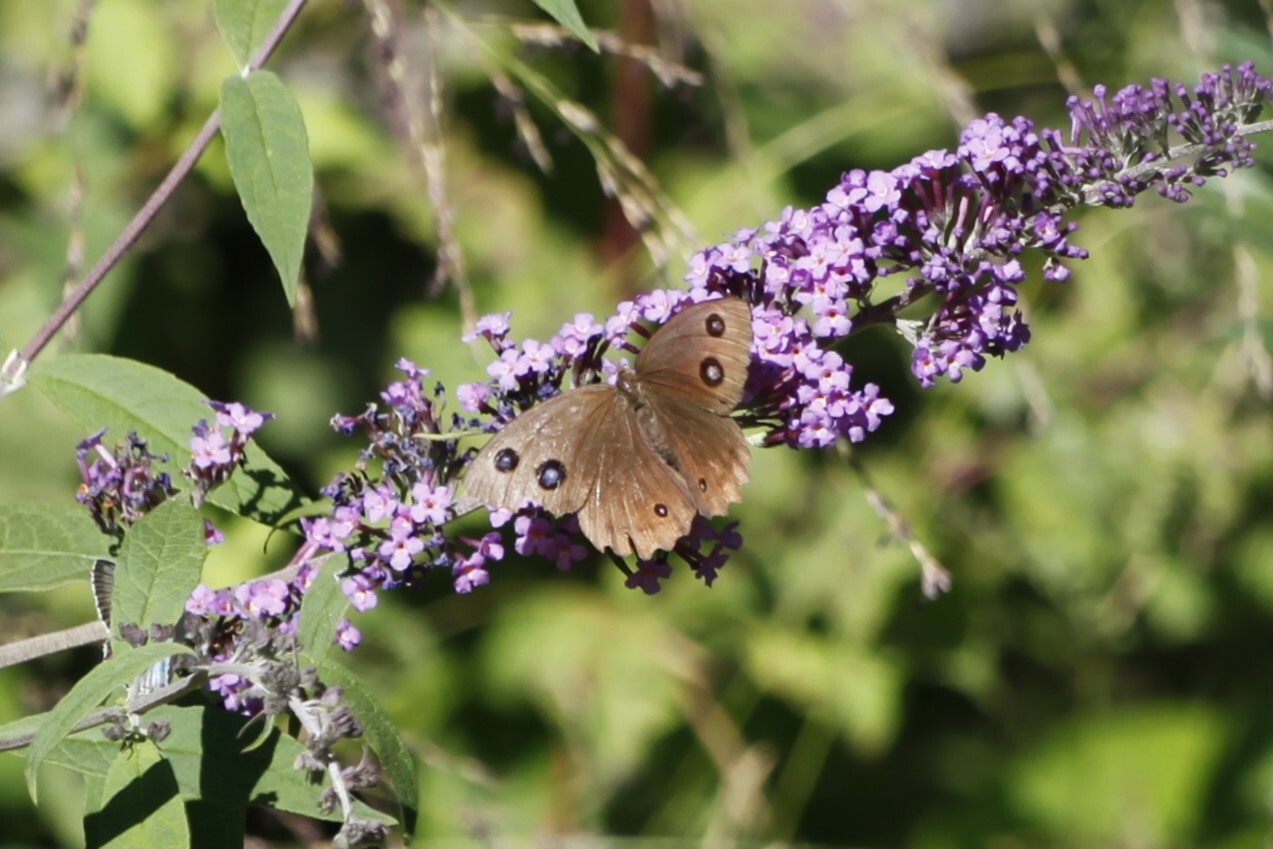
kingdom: Animalia
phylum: Arthropoda
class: Insecta
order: Lepidoptera
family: Nymphalidae
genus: Minois
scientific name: Minois dryas
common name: Dryad
